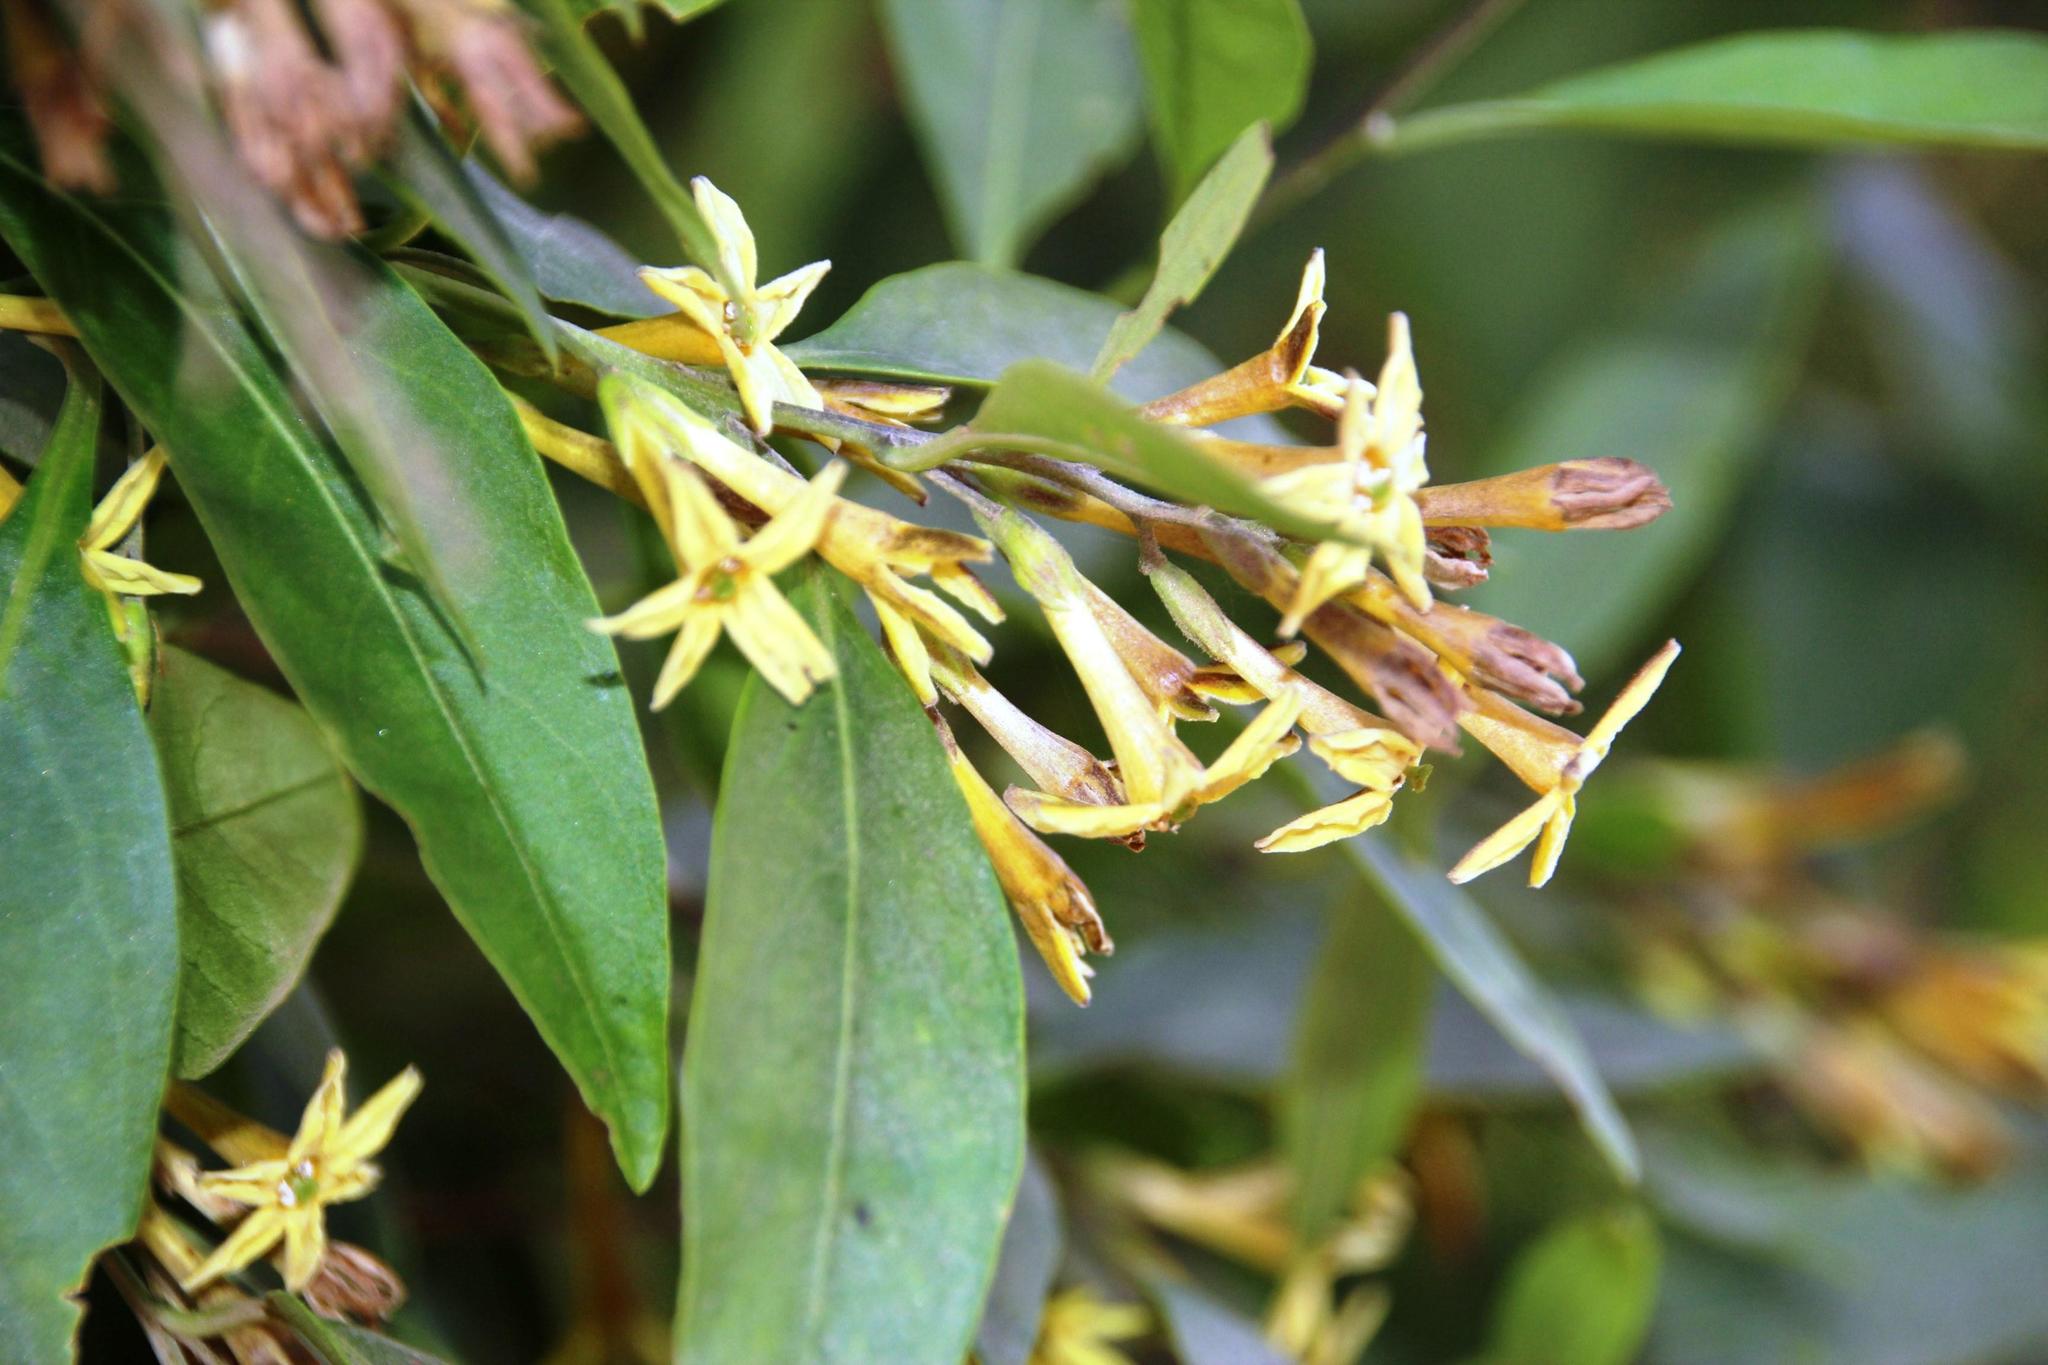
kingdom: Plantae
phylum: Tracheophyta
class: Magnoliopsida
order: Solanales
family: Solanaceae
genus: Cestrum
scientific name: Cestrum parqui
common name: Chilean cestrum
